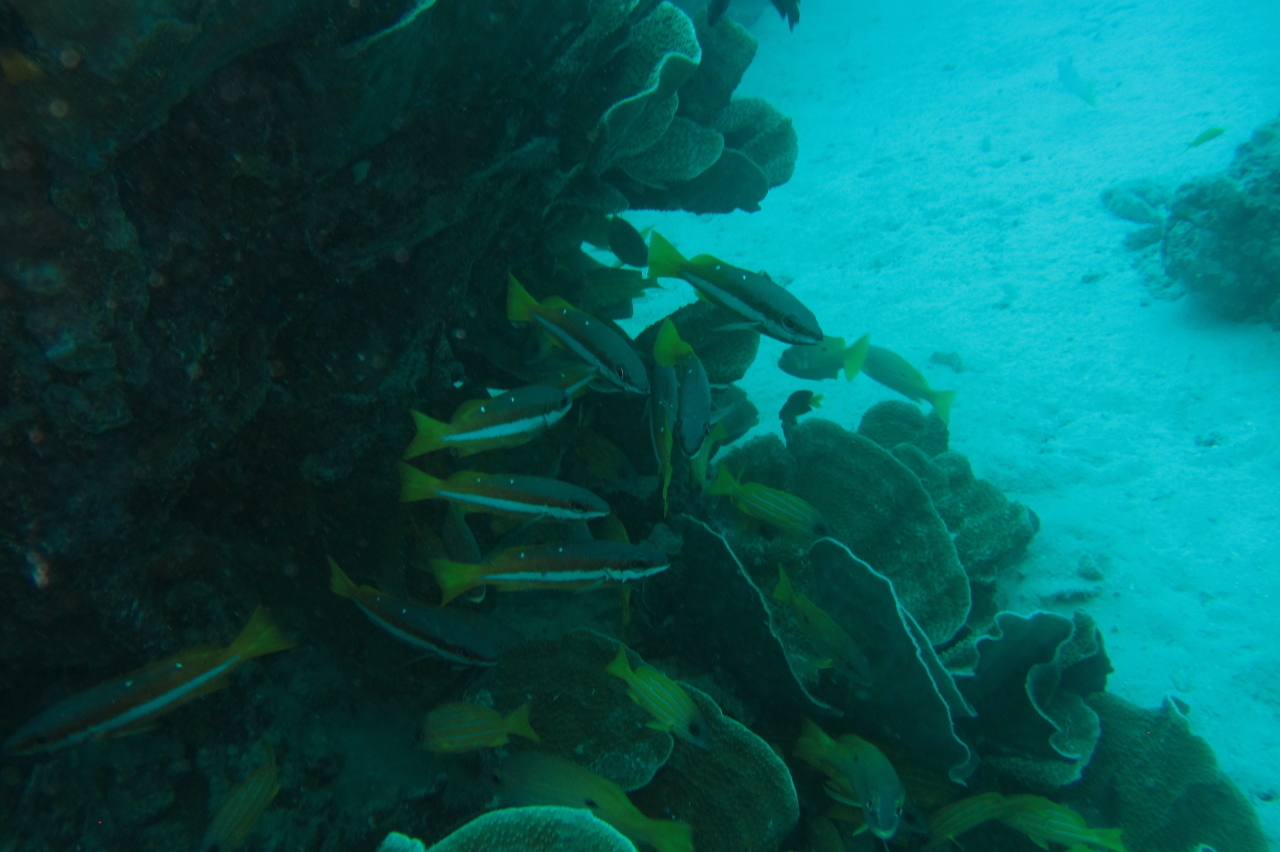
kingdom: Animalia
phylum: Chordata
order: Perciformes
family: Lutjanidae
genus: Lutjanus
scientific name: Lutjanus biguttatus
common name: Two-spot snapper
